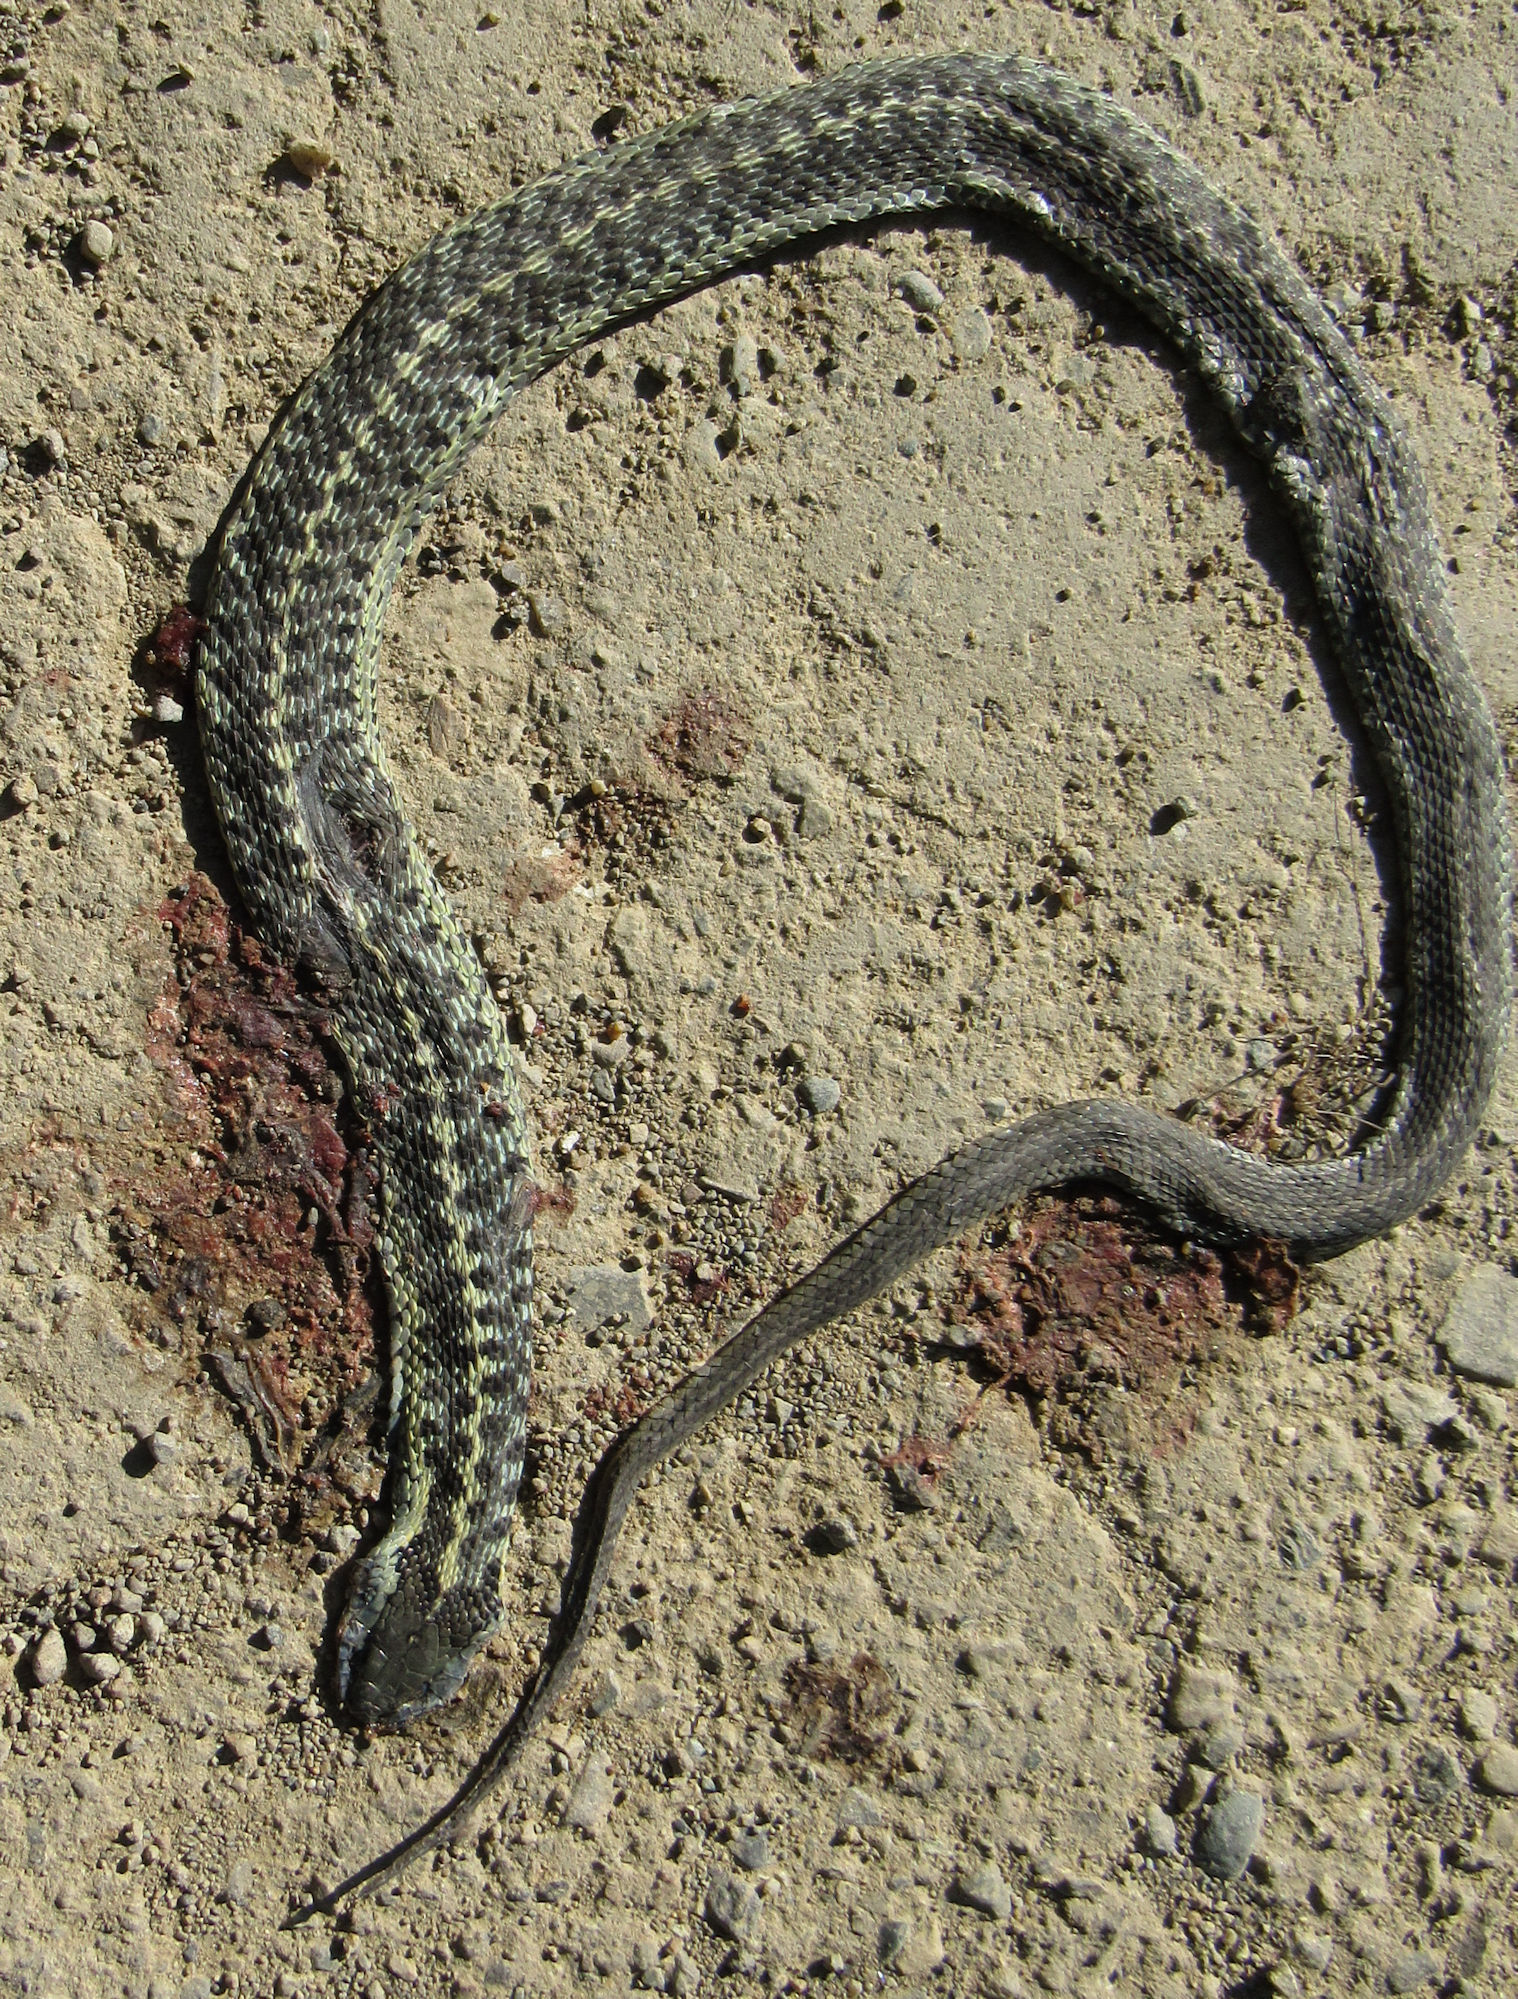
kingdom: Animalia
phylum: Chordata
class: Squamata
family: Colubridae
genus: Thamnophis
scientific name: Thamnophis elegans
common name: Western terrestrial garter snake
